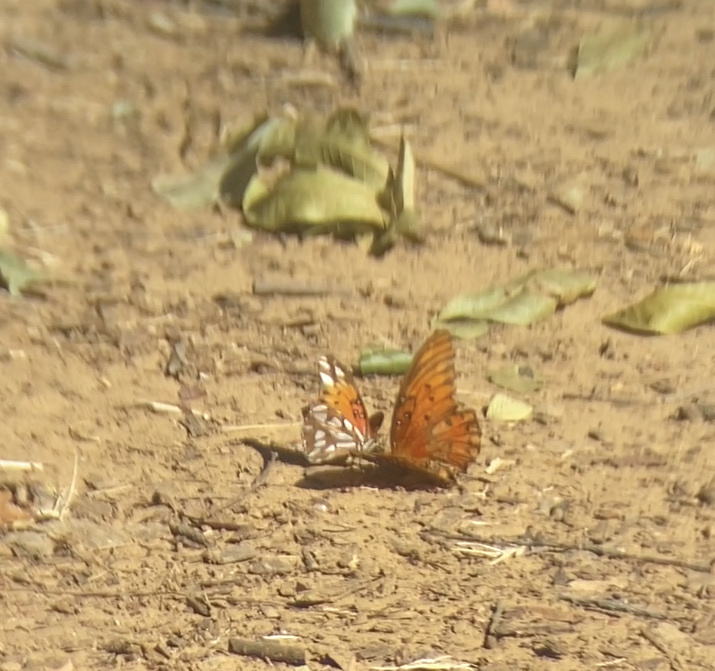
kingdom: Animalia
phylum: Arthropoda
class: Insecta
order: Lepidoptera
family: Nymphalidae
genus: Dione
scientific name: Dione vanillae
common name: Gulf fritillary
